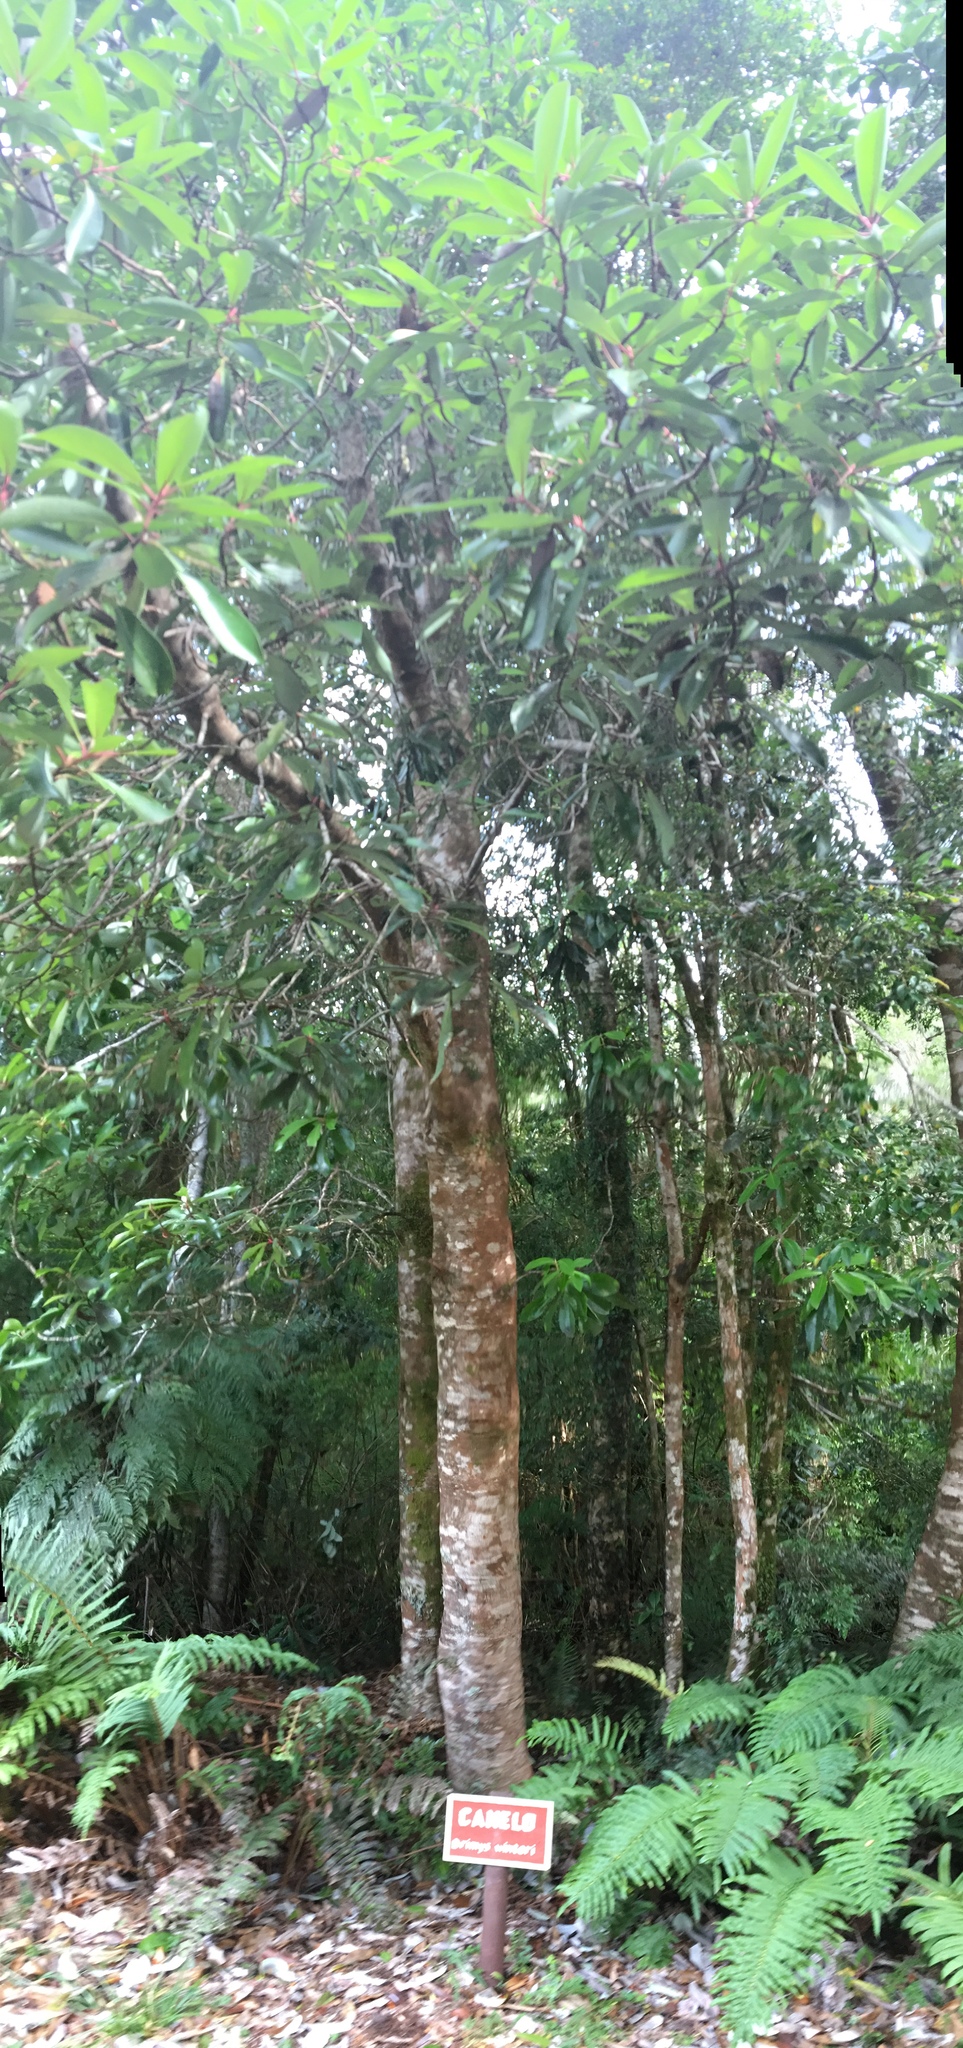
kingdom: Plantae
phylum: Tracheophyta
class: Magnoliopsida
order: Canellales
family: Winteraceae
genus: Drimys
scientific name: Drimys winteri
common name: Winter's-bark
